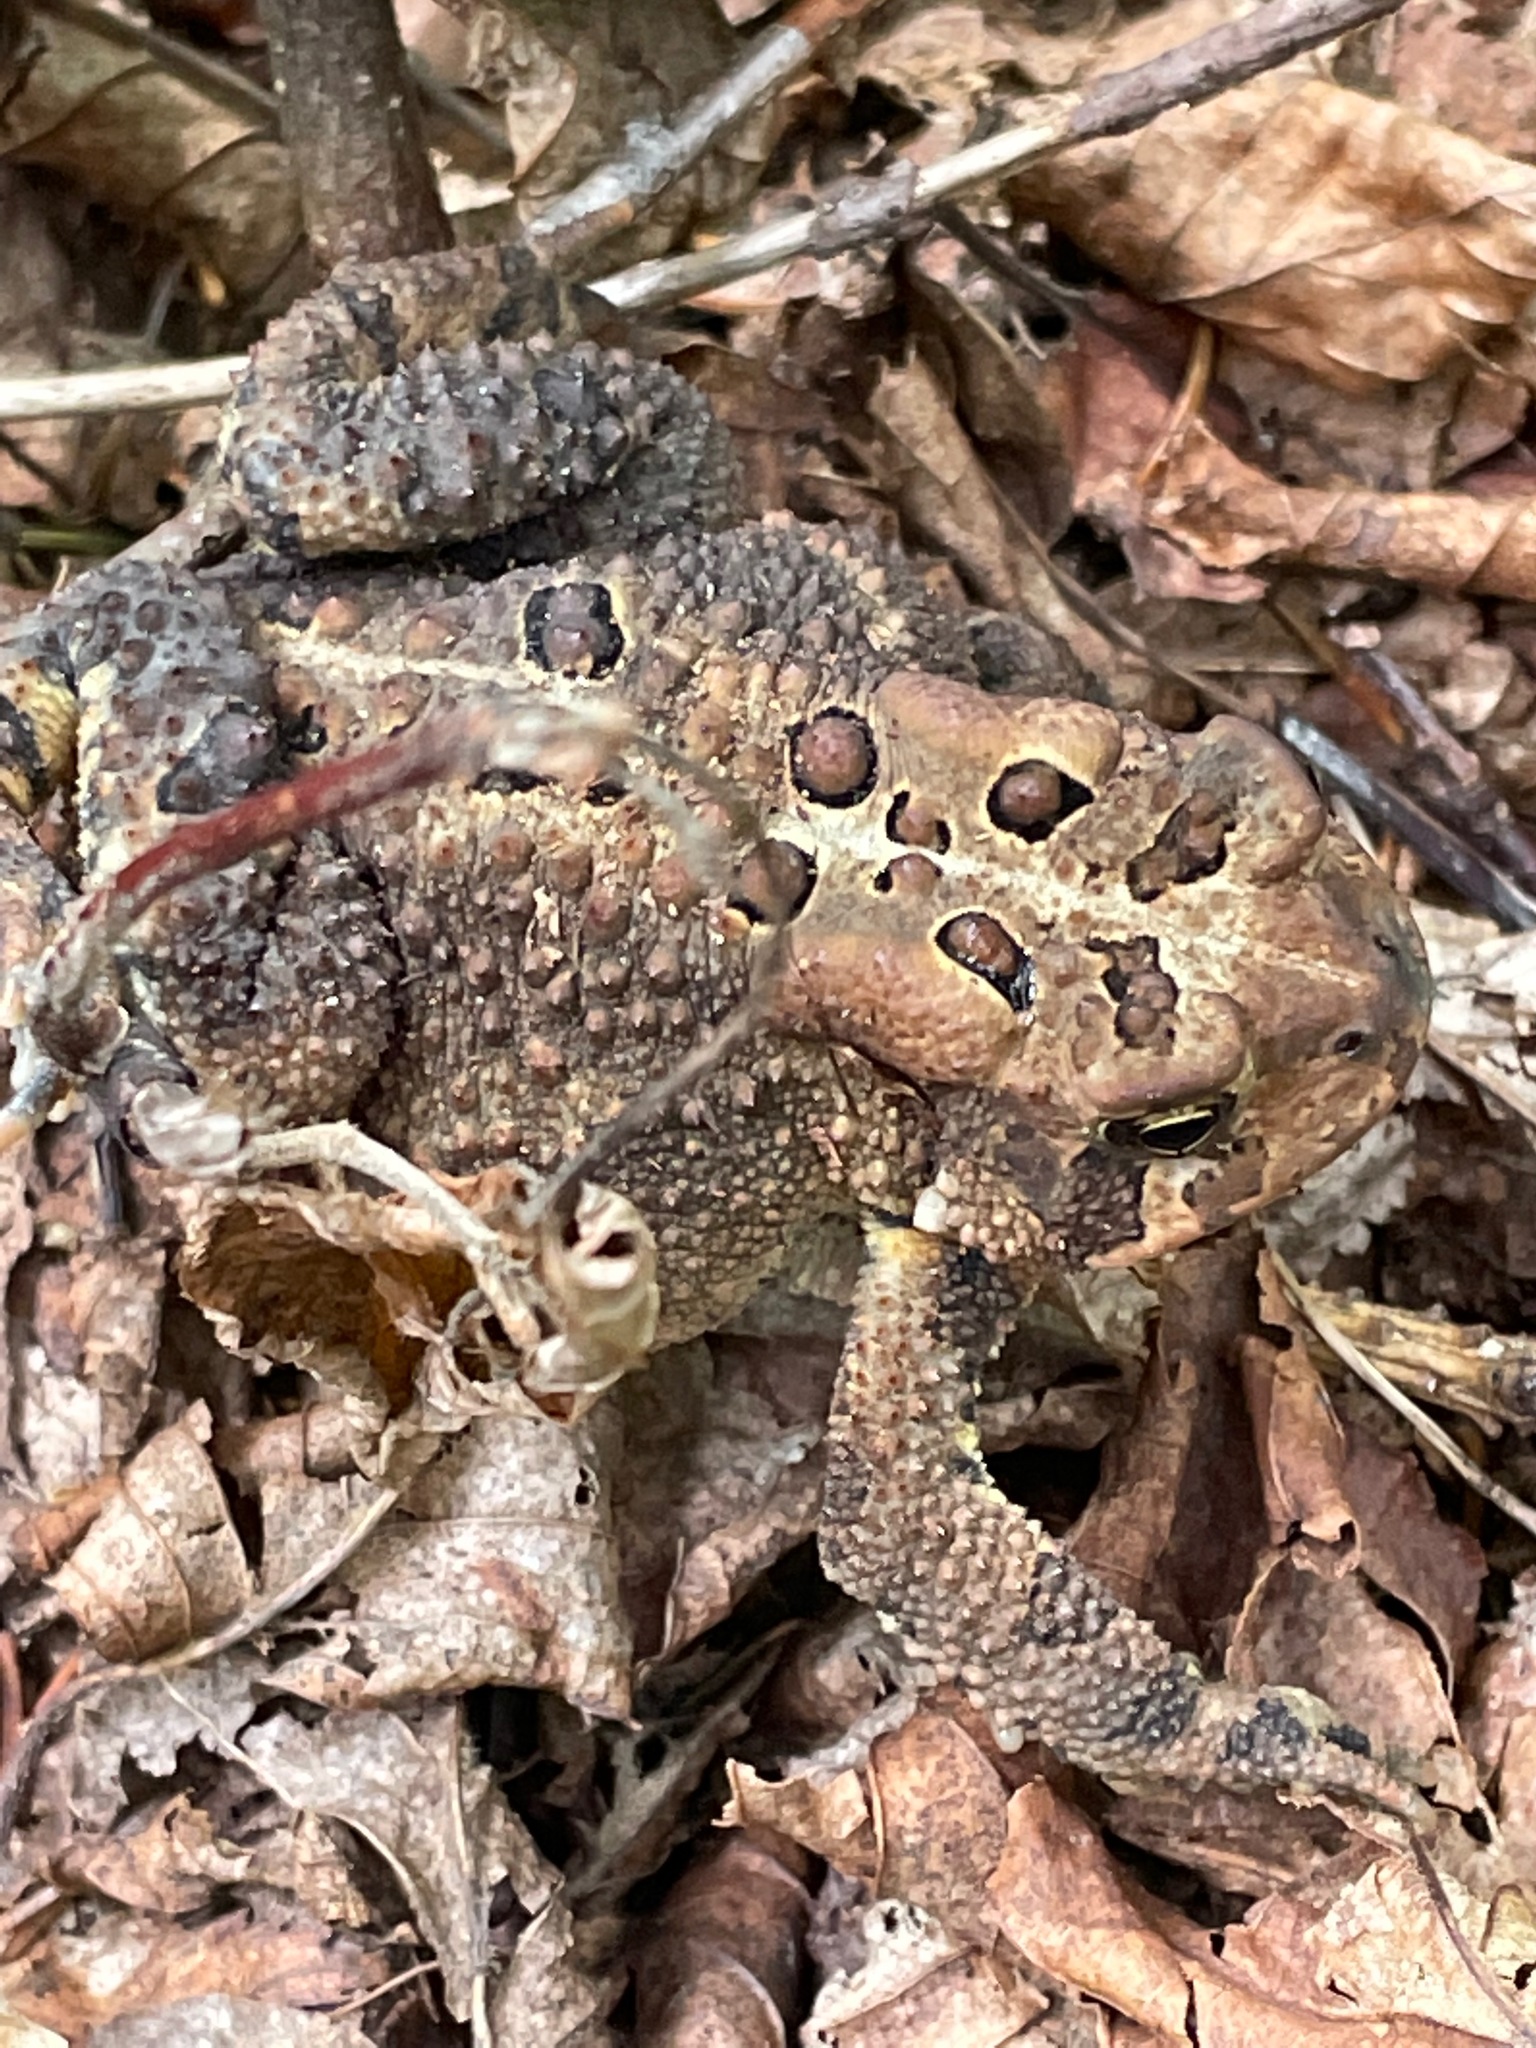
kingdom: Animalia
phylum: Chordata
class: Amphibia
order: Anura
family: Bufonidae
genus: Anaxyrus
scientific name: Anaxyrus americanus
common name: American toad
